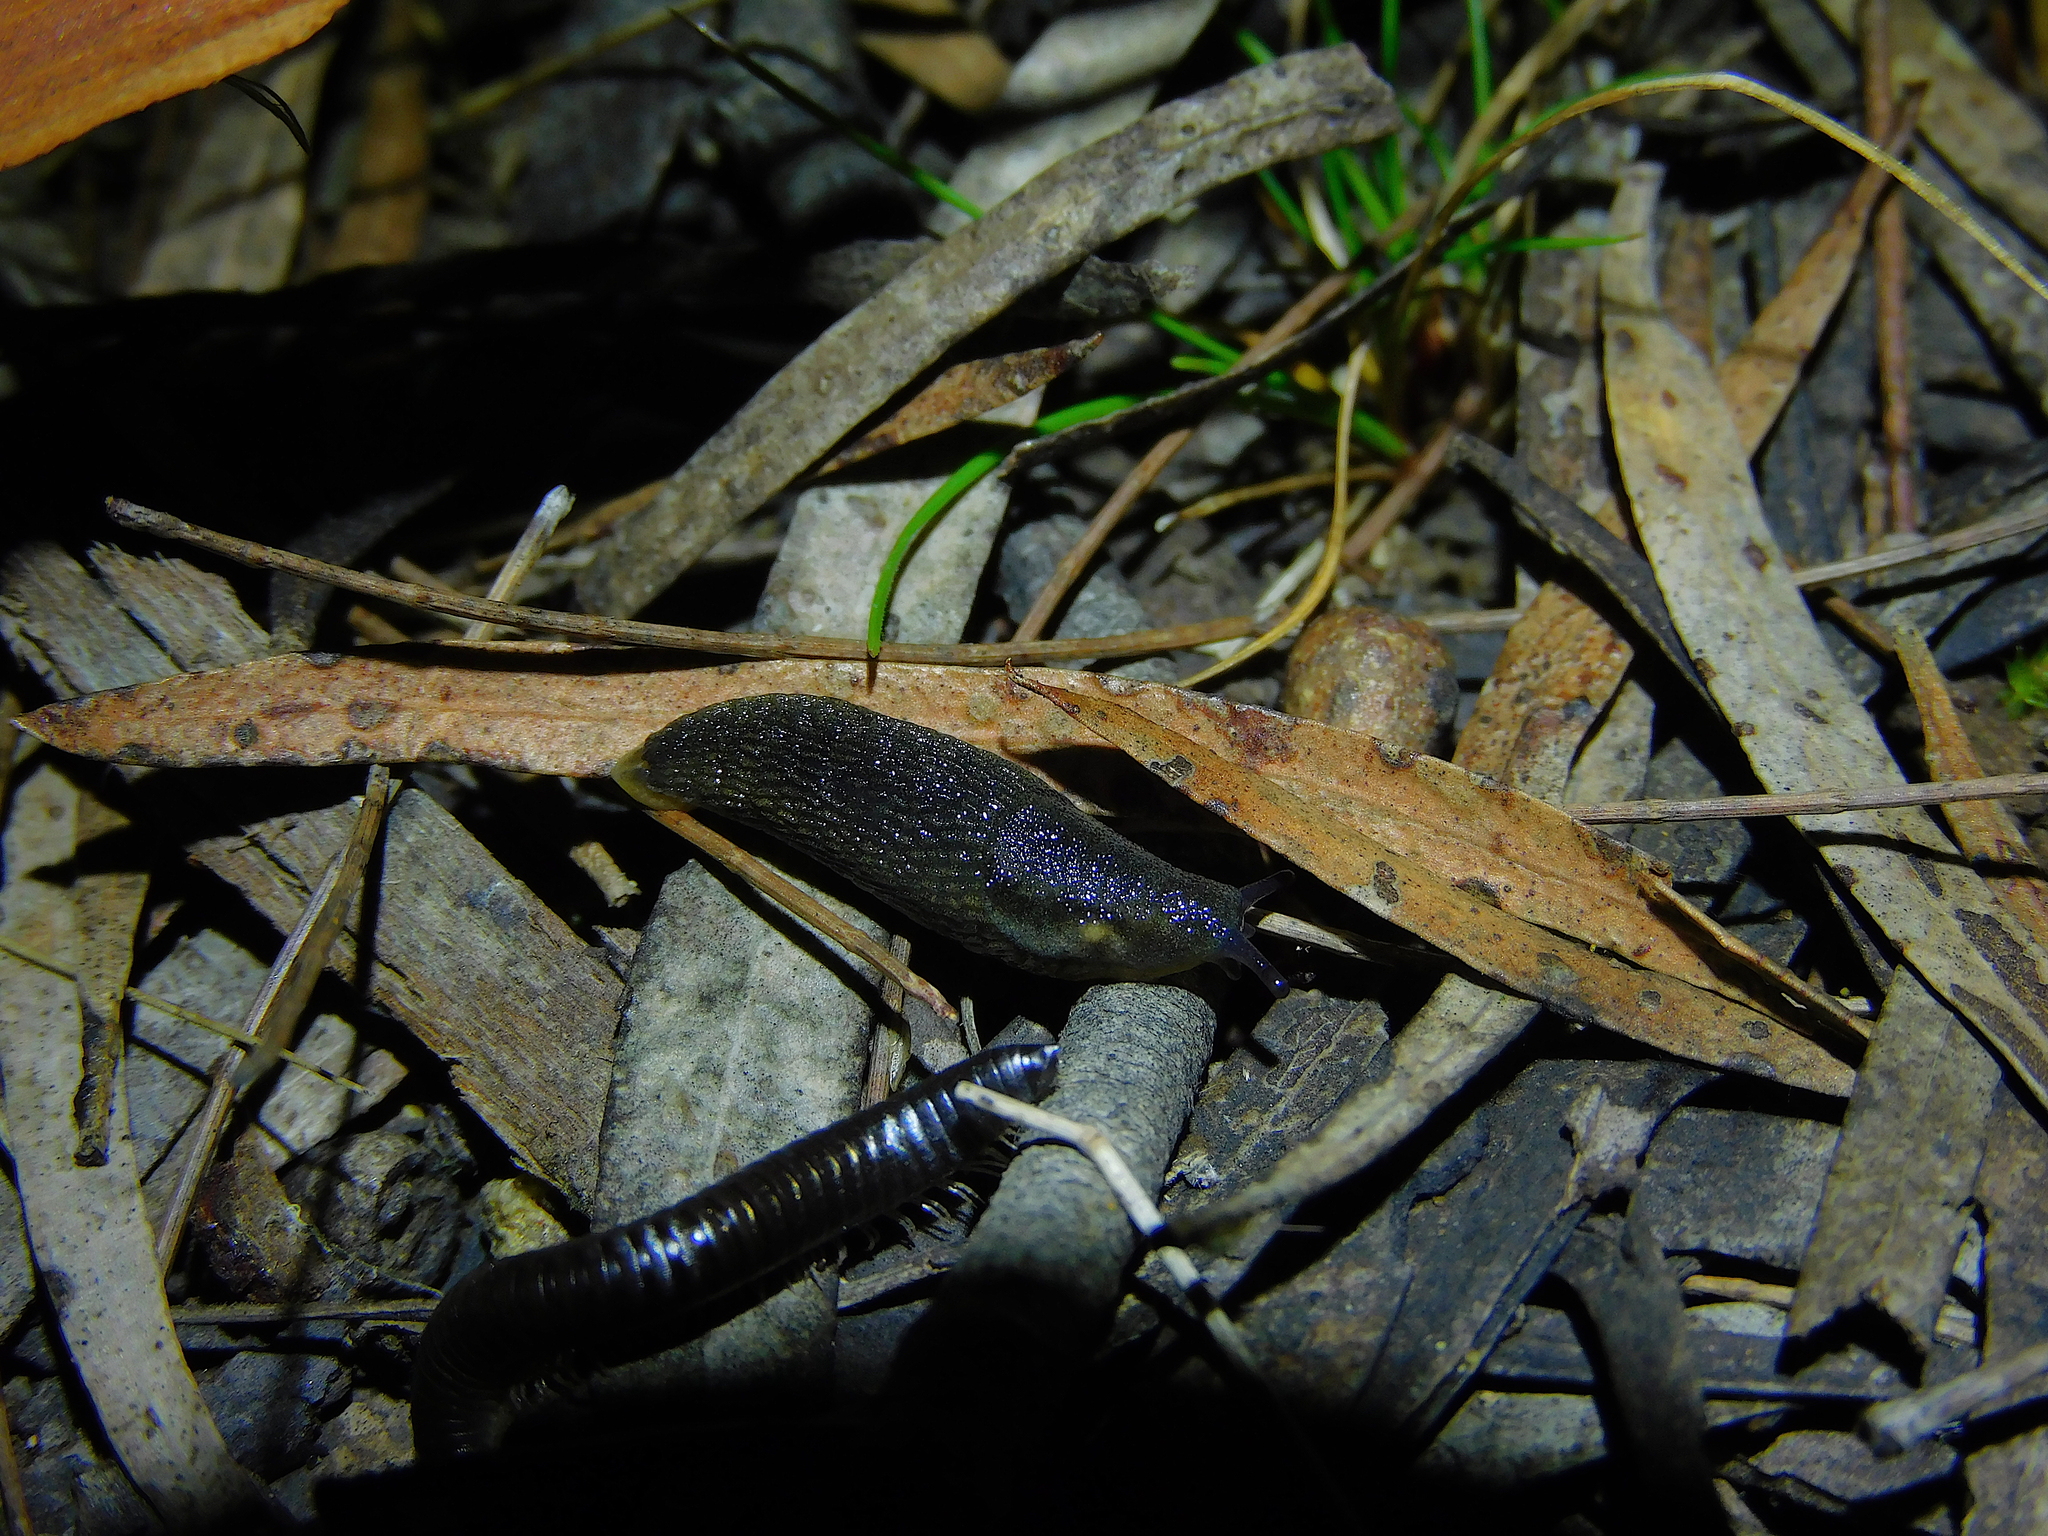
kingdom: Animalia
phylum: Mollusca
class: Gastropoda
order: Stylommatophora
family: Arionidae
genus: Arion
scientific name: Arion hortensis
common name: Garden arion
